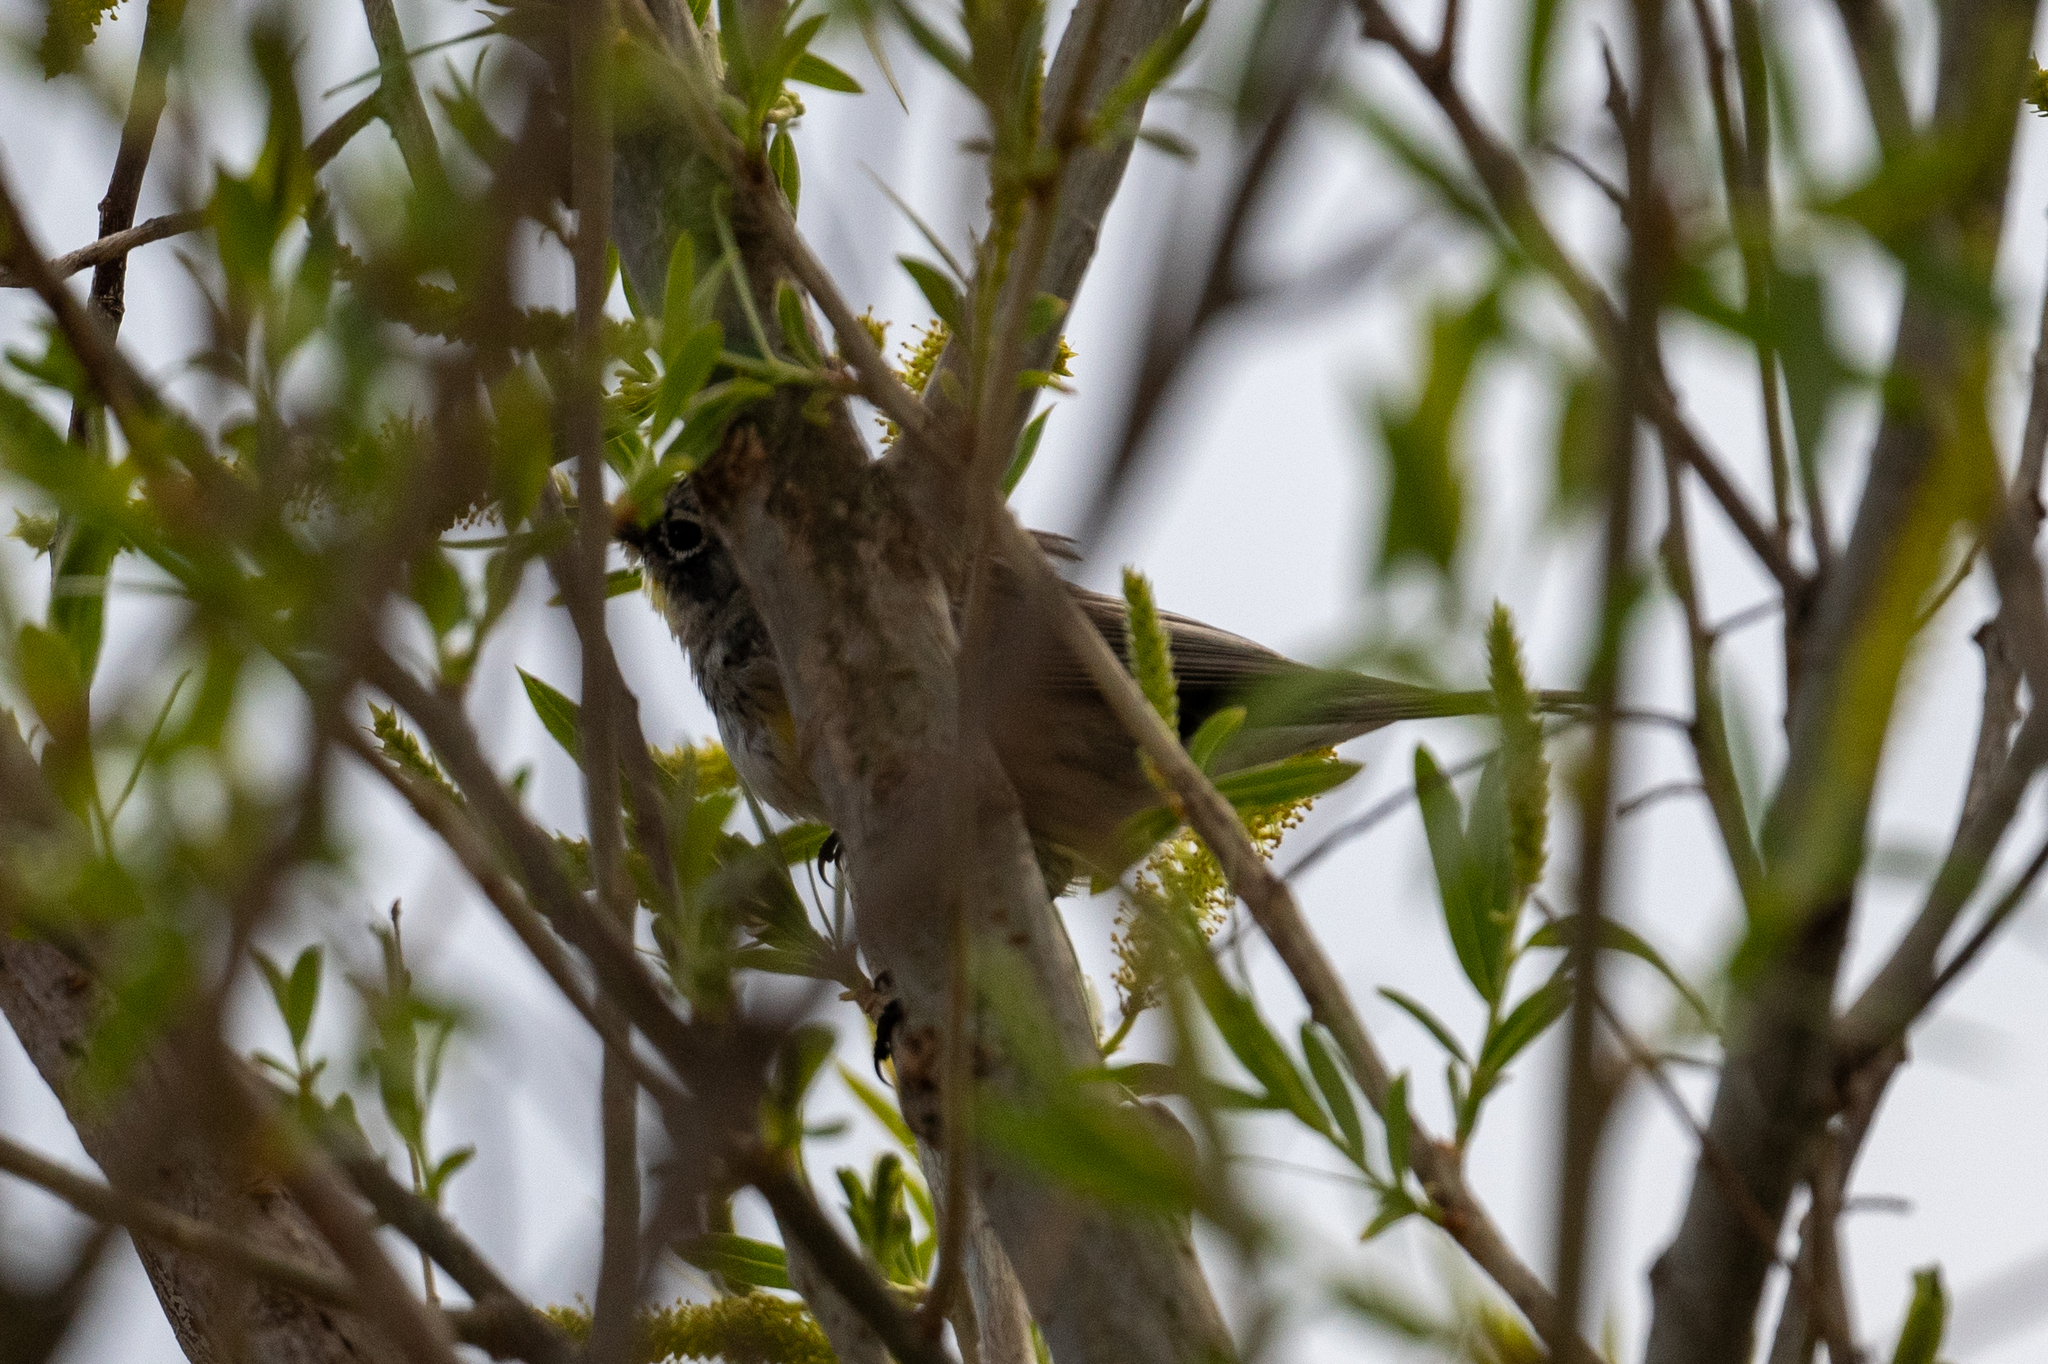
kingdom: Animalia
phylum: Chordata
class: Aves
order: Passeriformes
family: Parulidae
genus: Setophaga
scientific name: Setophaga coronata
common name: Myrtle warbler
